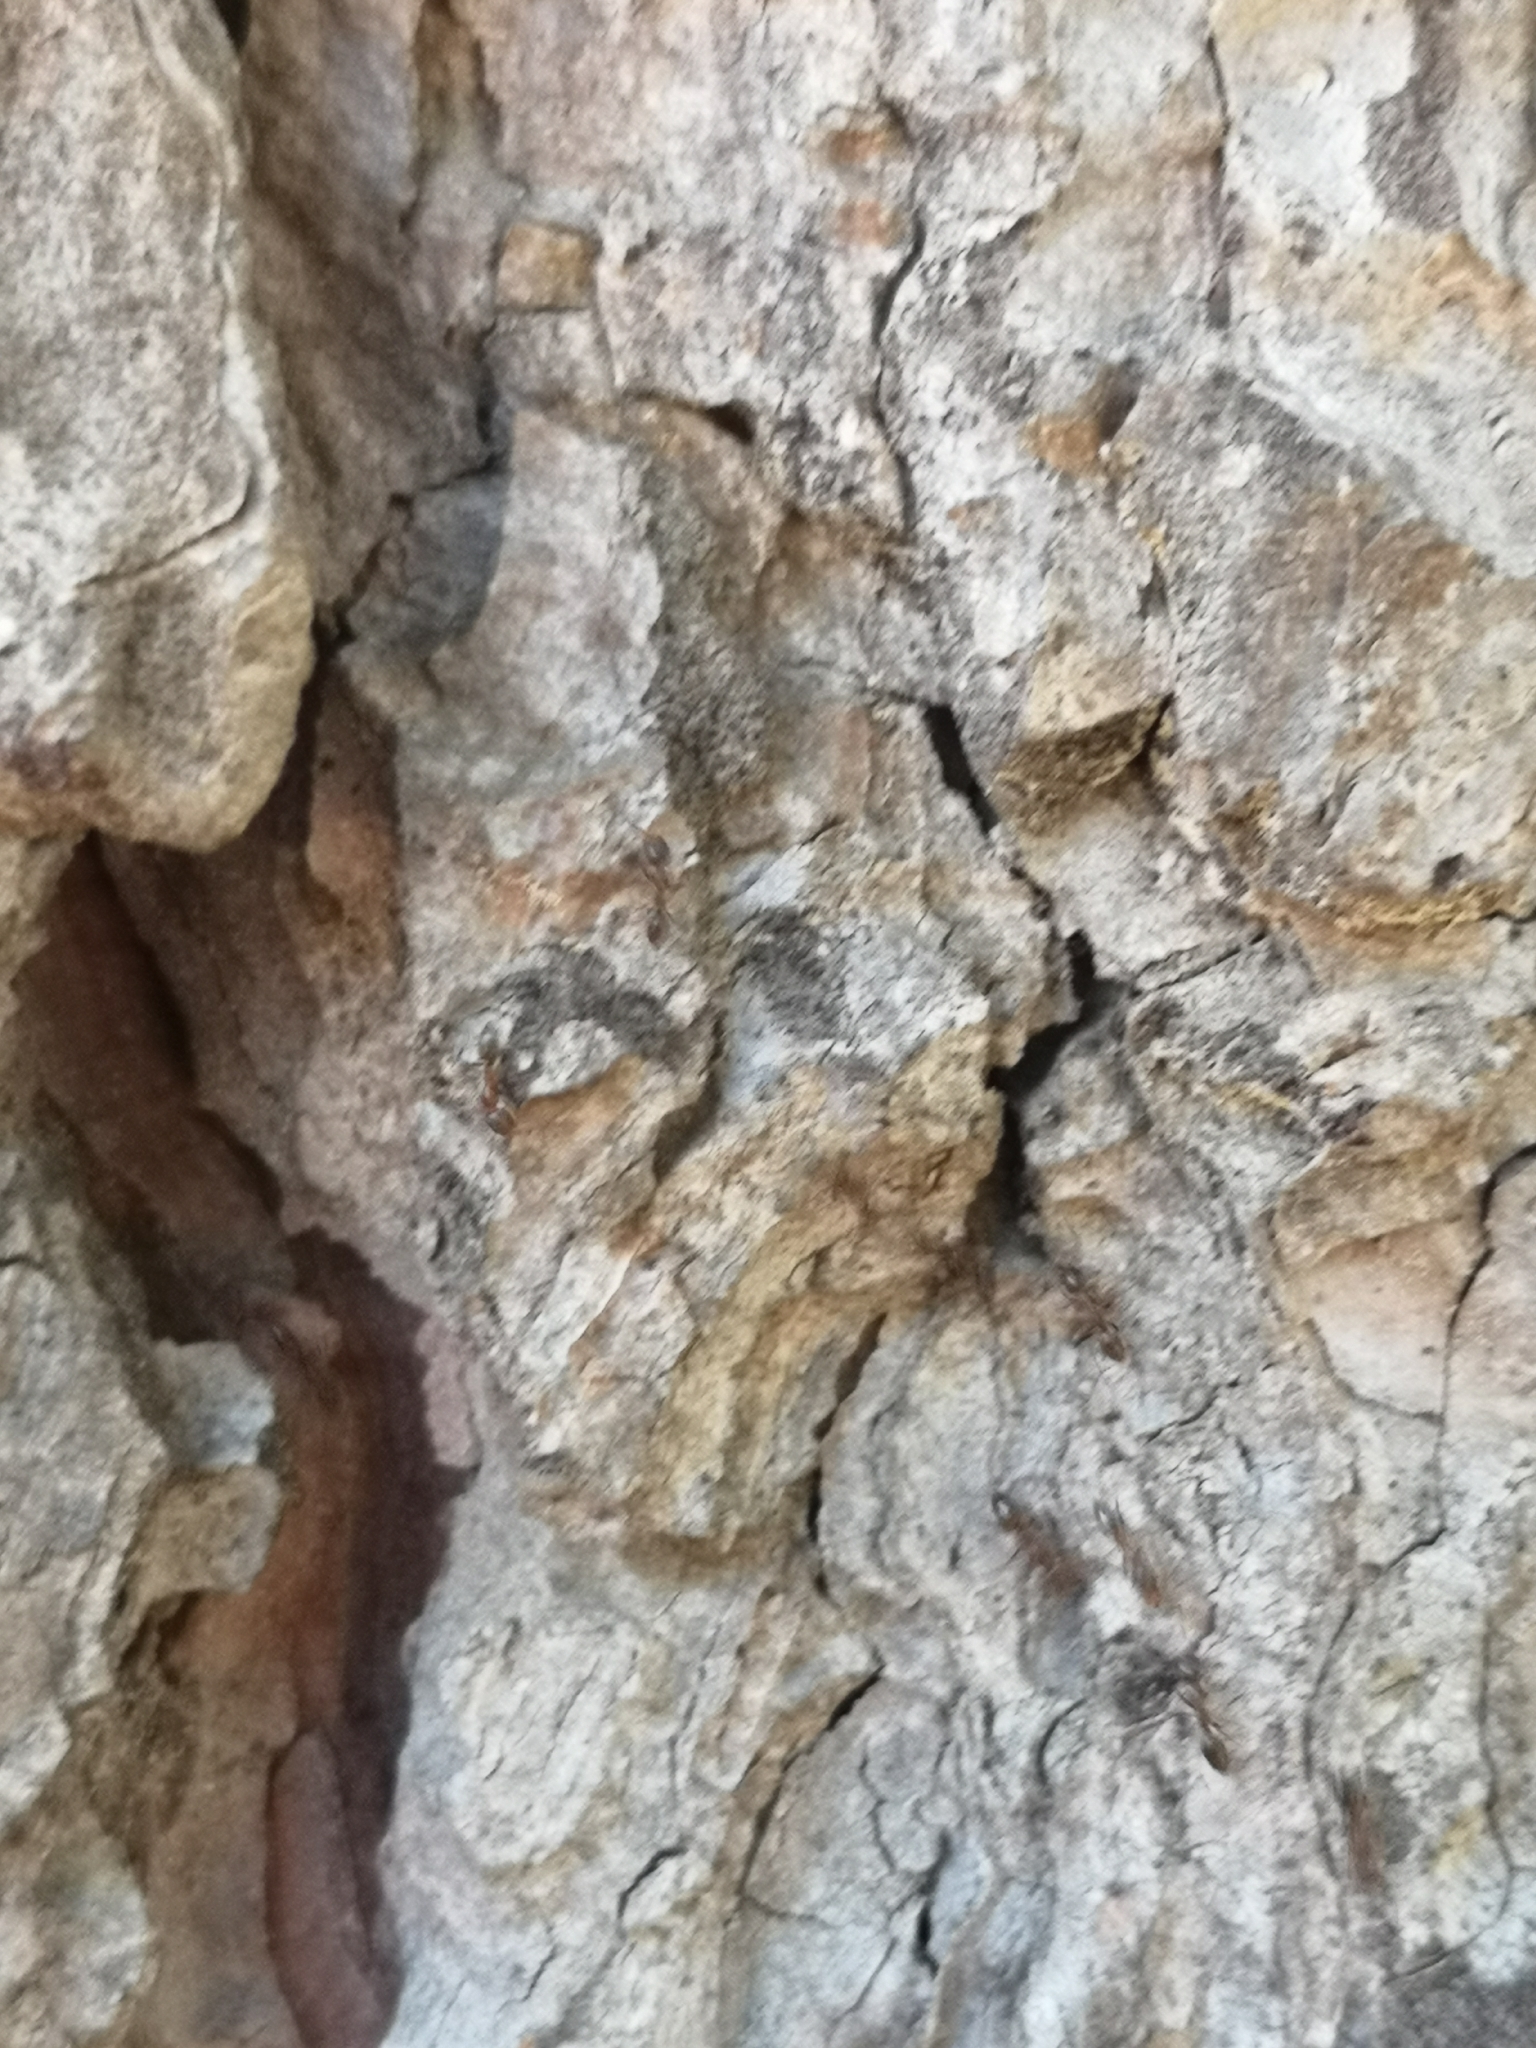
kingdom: Animalia
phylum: Arthropoda
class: Insecta
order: Hymenoptera
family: Formicidae
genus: Linepithema
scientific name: Linepithema humile
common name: Argentine ant
